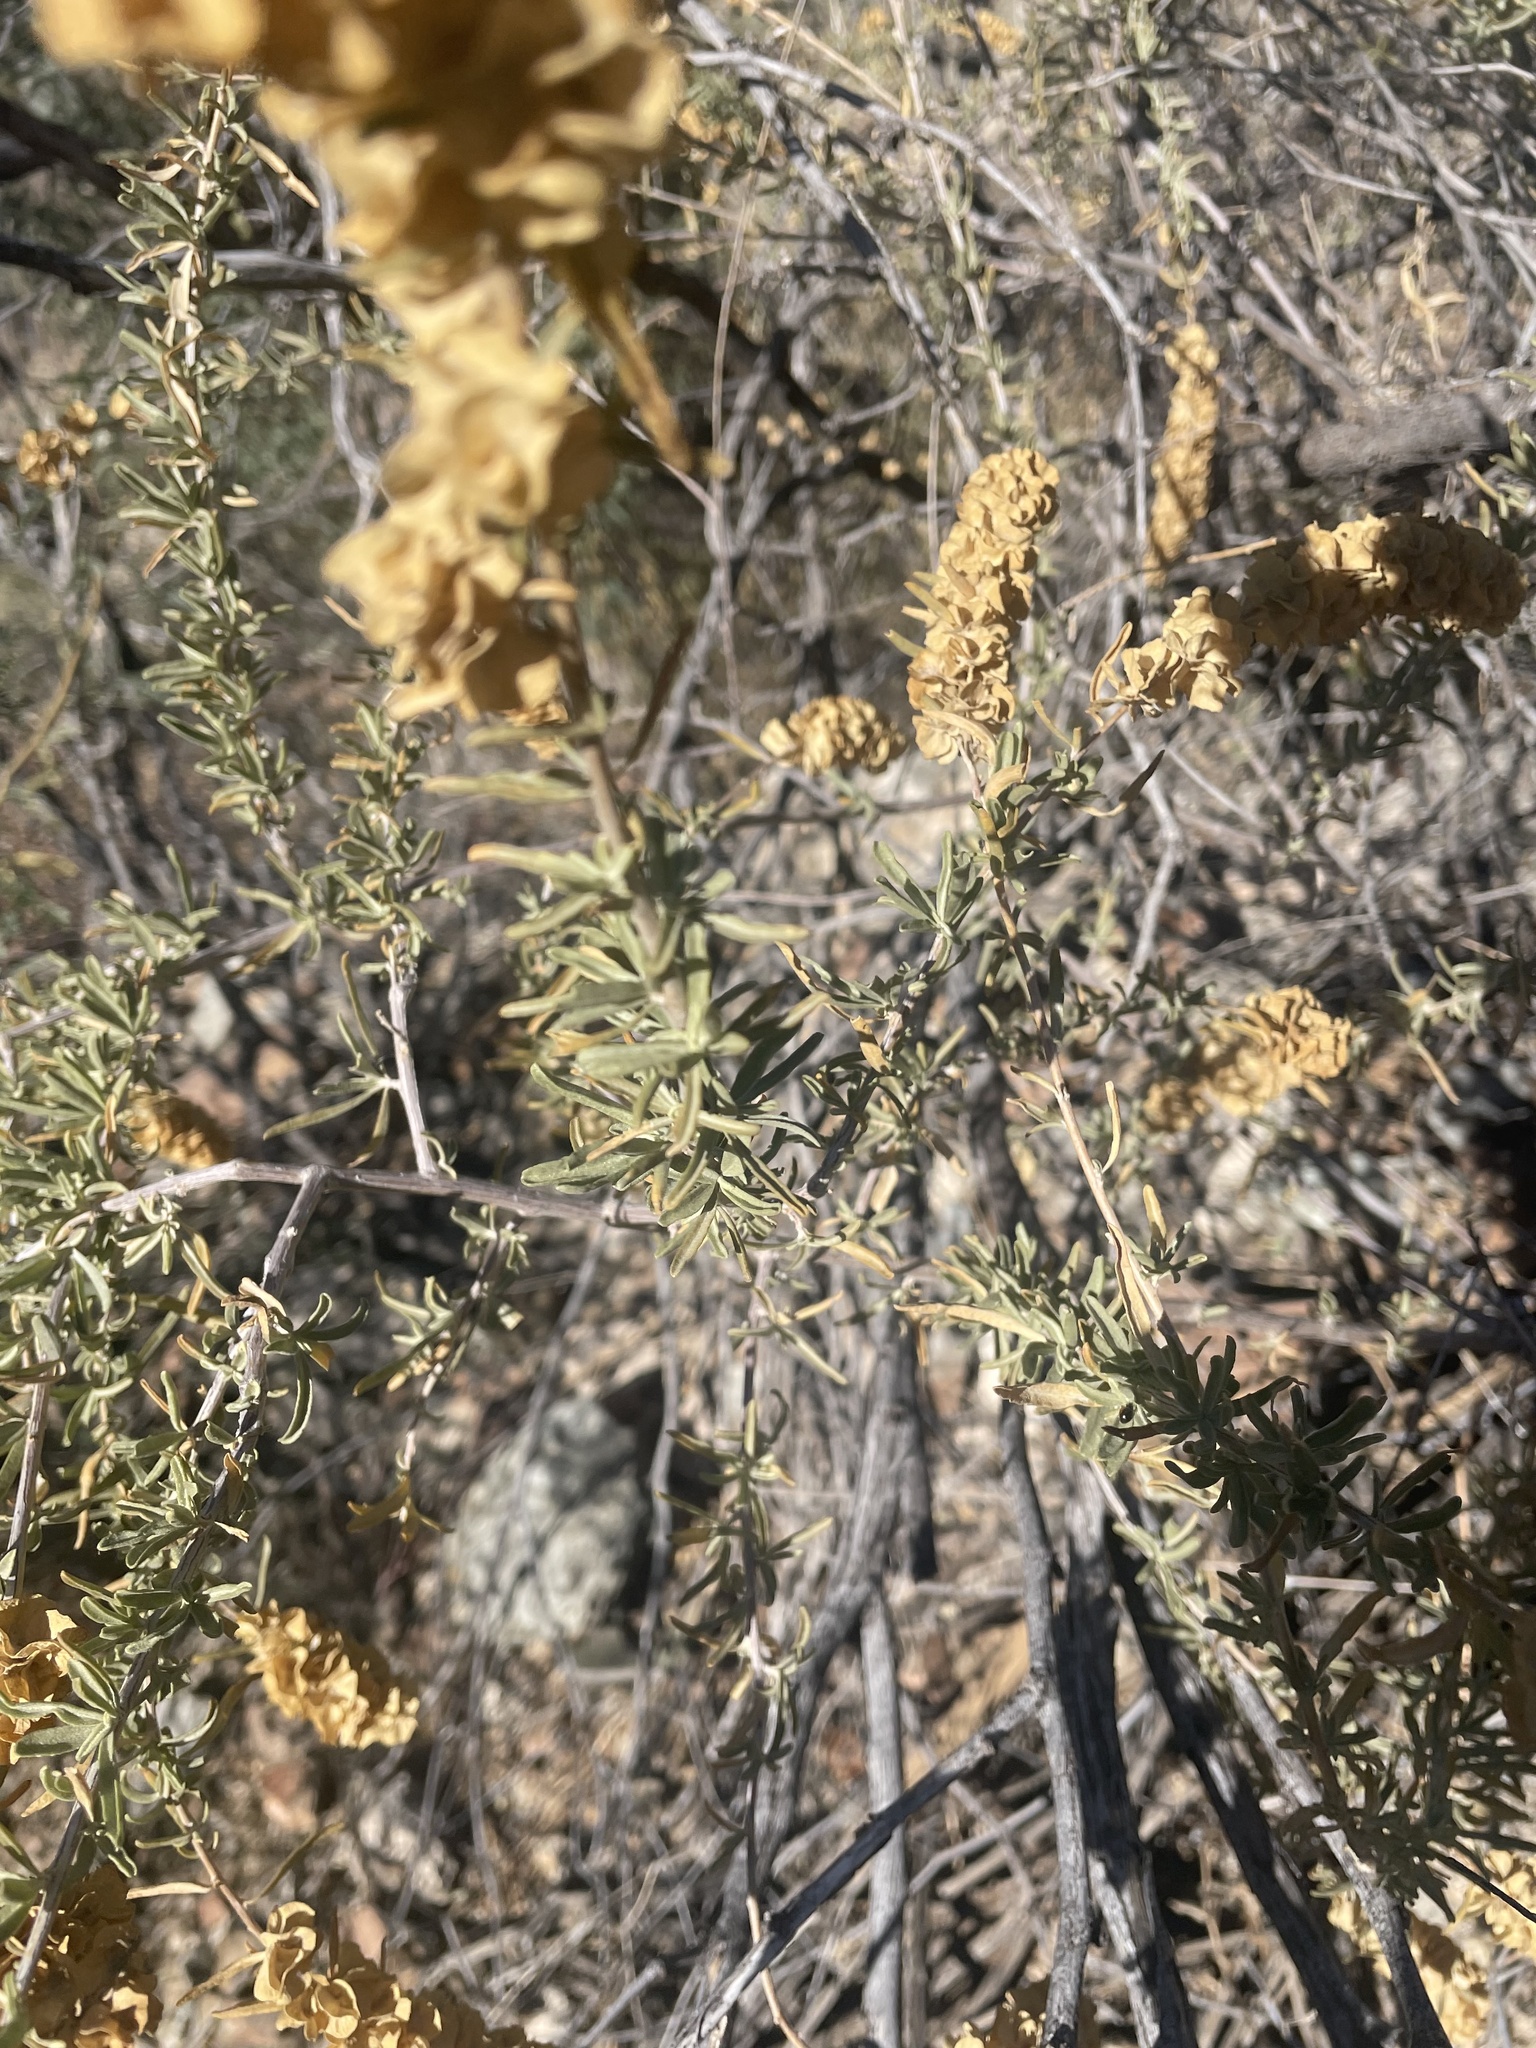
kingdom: Plantae
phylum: Tracheophyta
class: Magnoliopsida
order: Caryophyllales
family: Amaranthaceae
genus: Atriplex
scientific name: Atriplex canescens
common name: Four-wing saltbush
